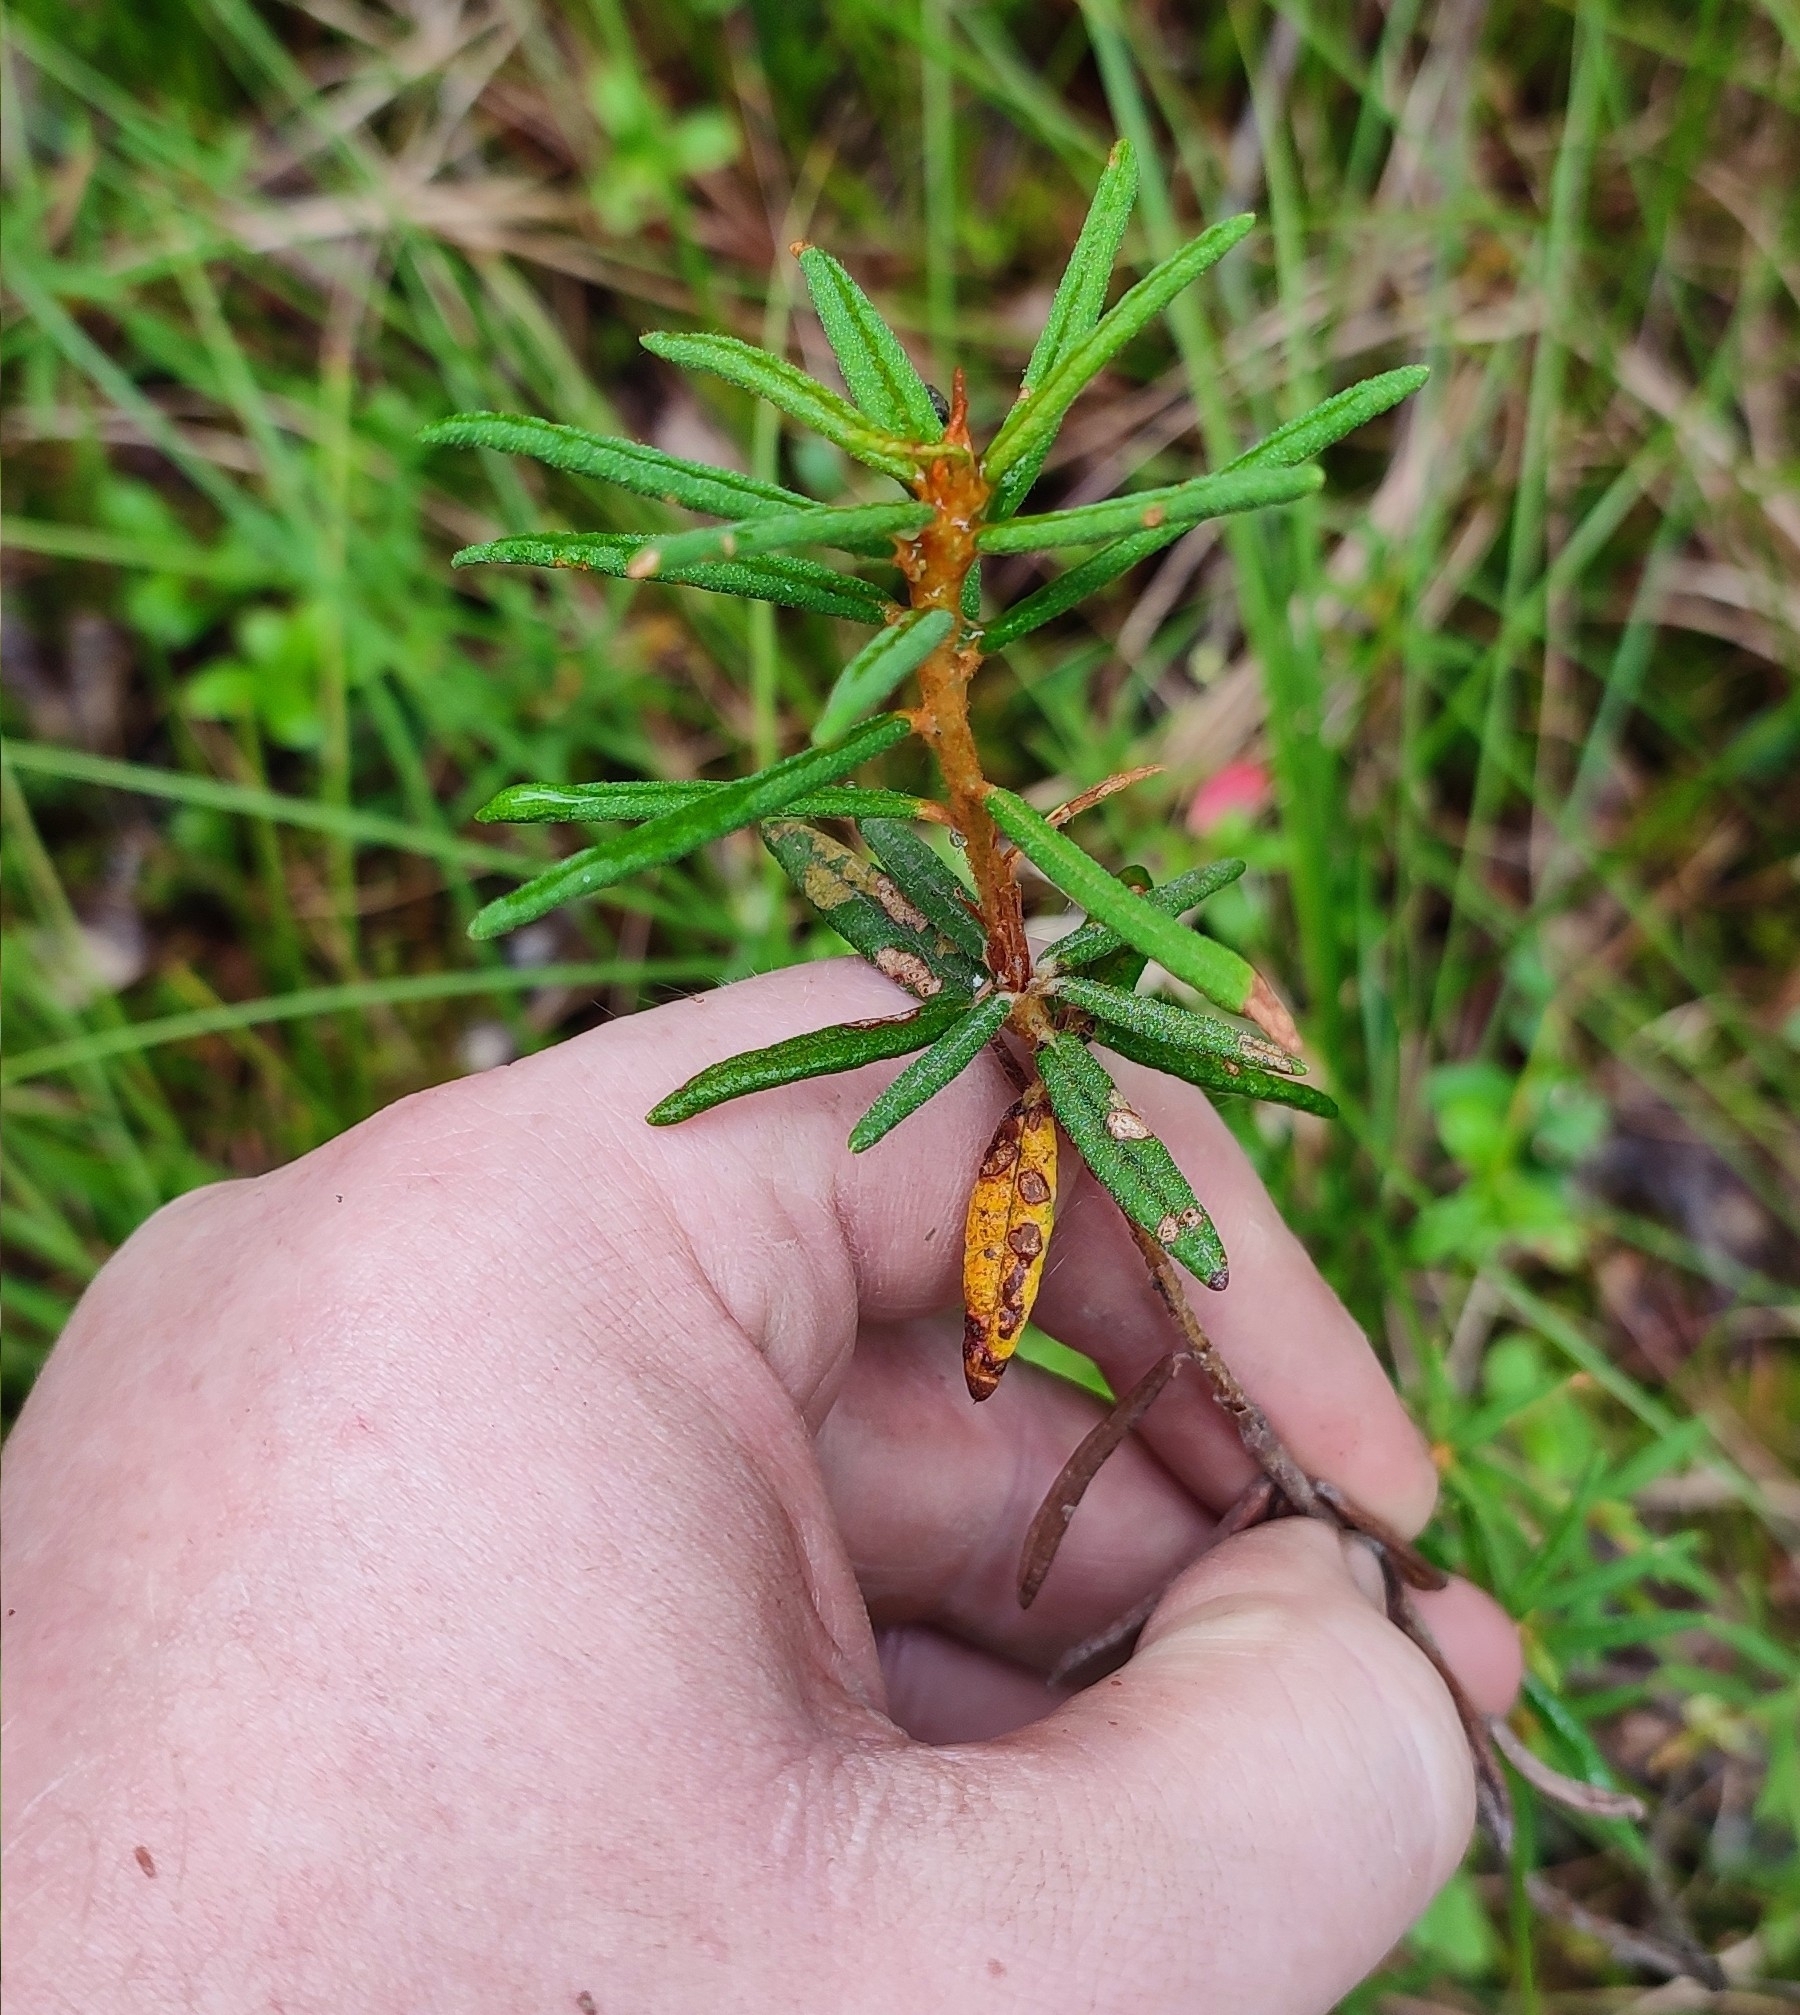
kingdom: Plantae
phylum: Tracheophyta
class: Magnoliopsida
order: Ericales
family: Ericaceae
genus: Rhododendron
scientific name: Rhododendron tomentosum
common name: Marsh labrador tea
